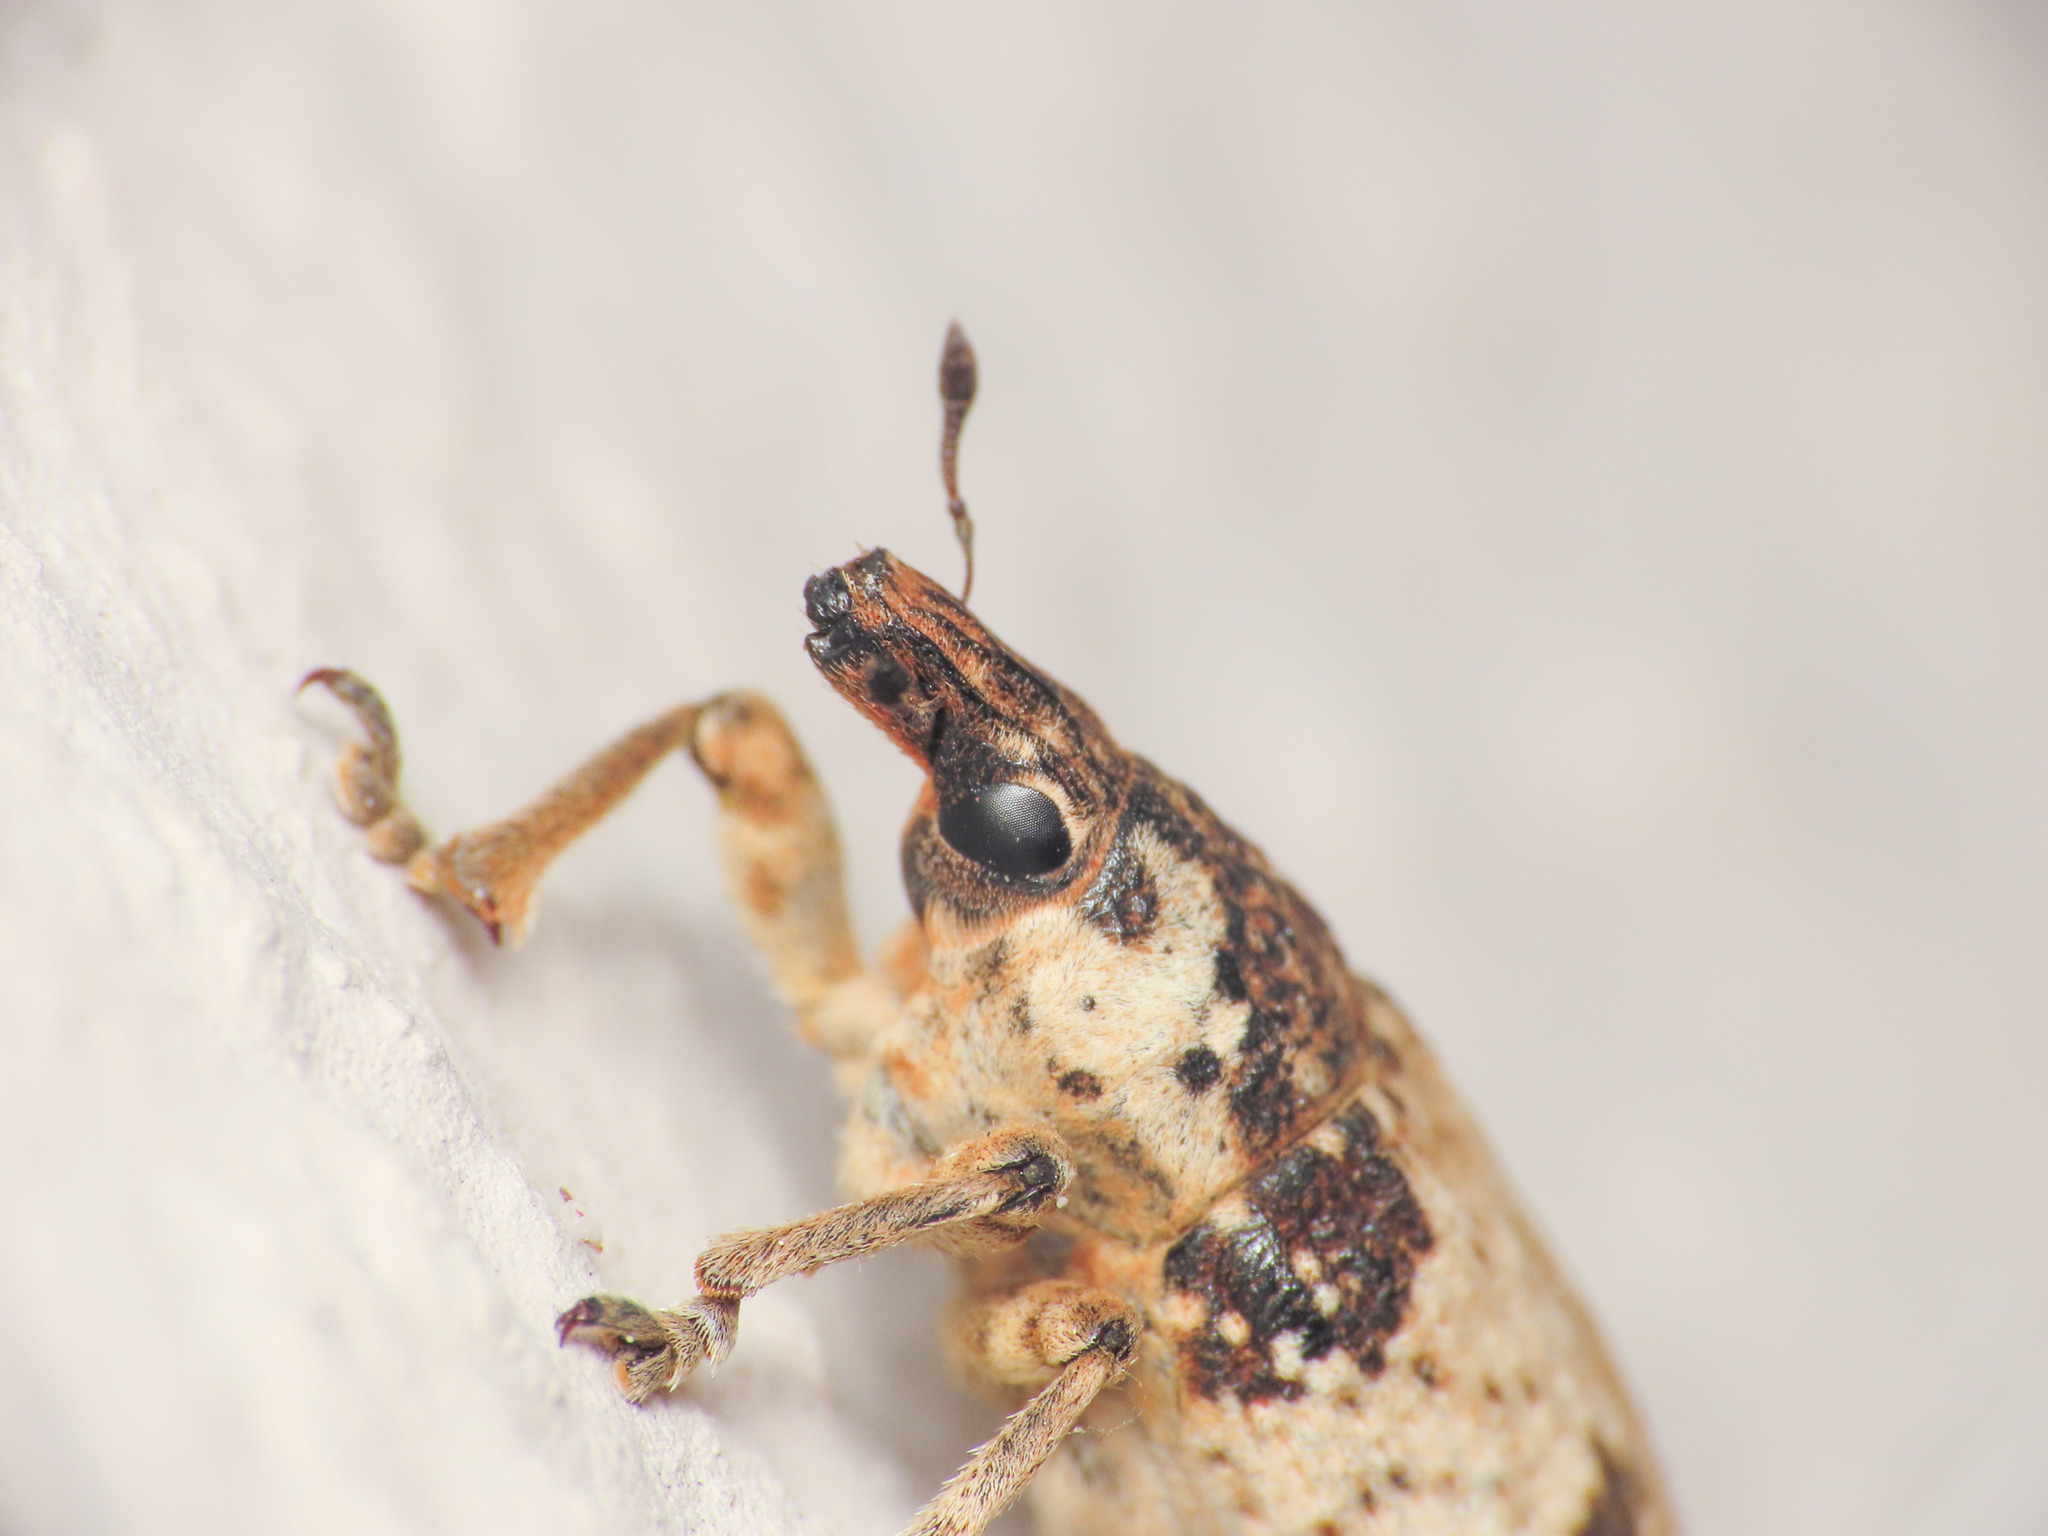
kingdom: Animalia
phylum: Arthropoda
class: Insecta
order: Coleoptera
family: Curculionidae
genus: Bothynoderes
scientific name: Bothynoderes affinis
